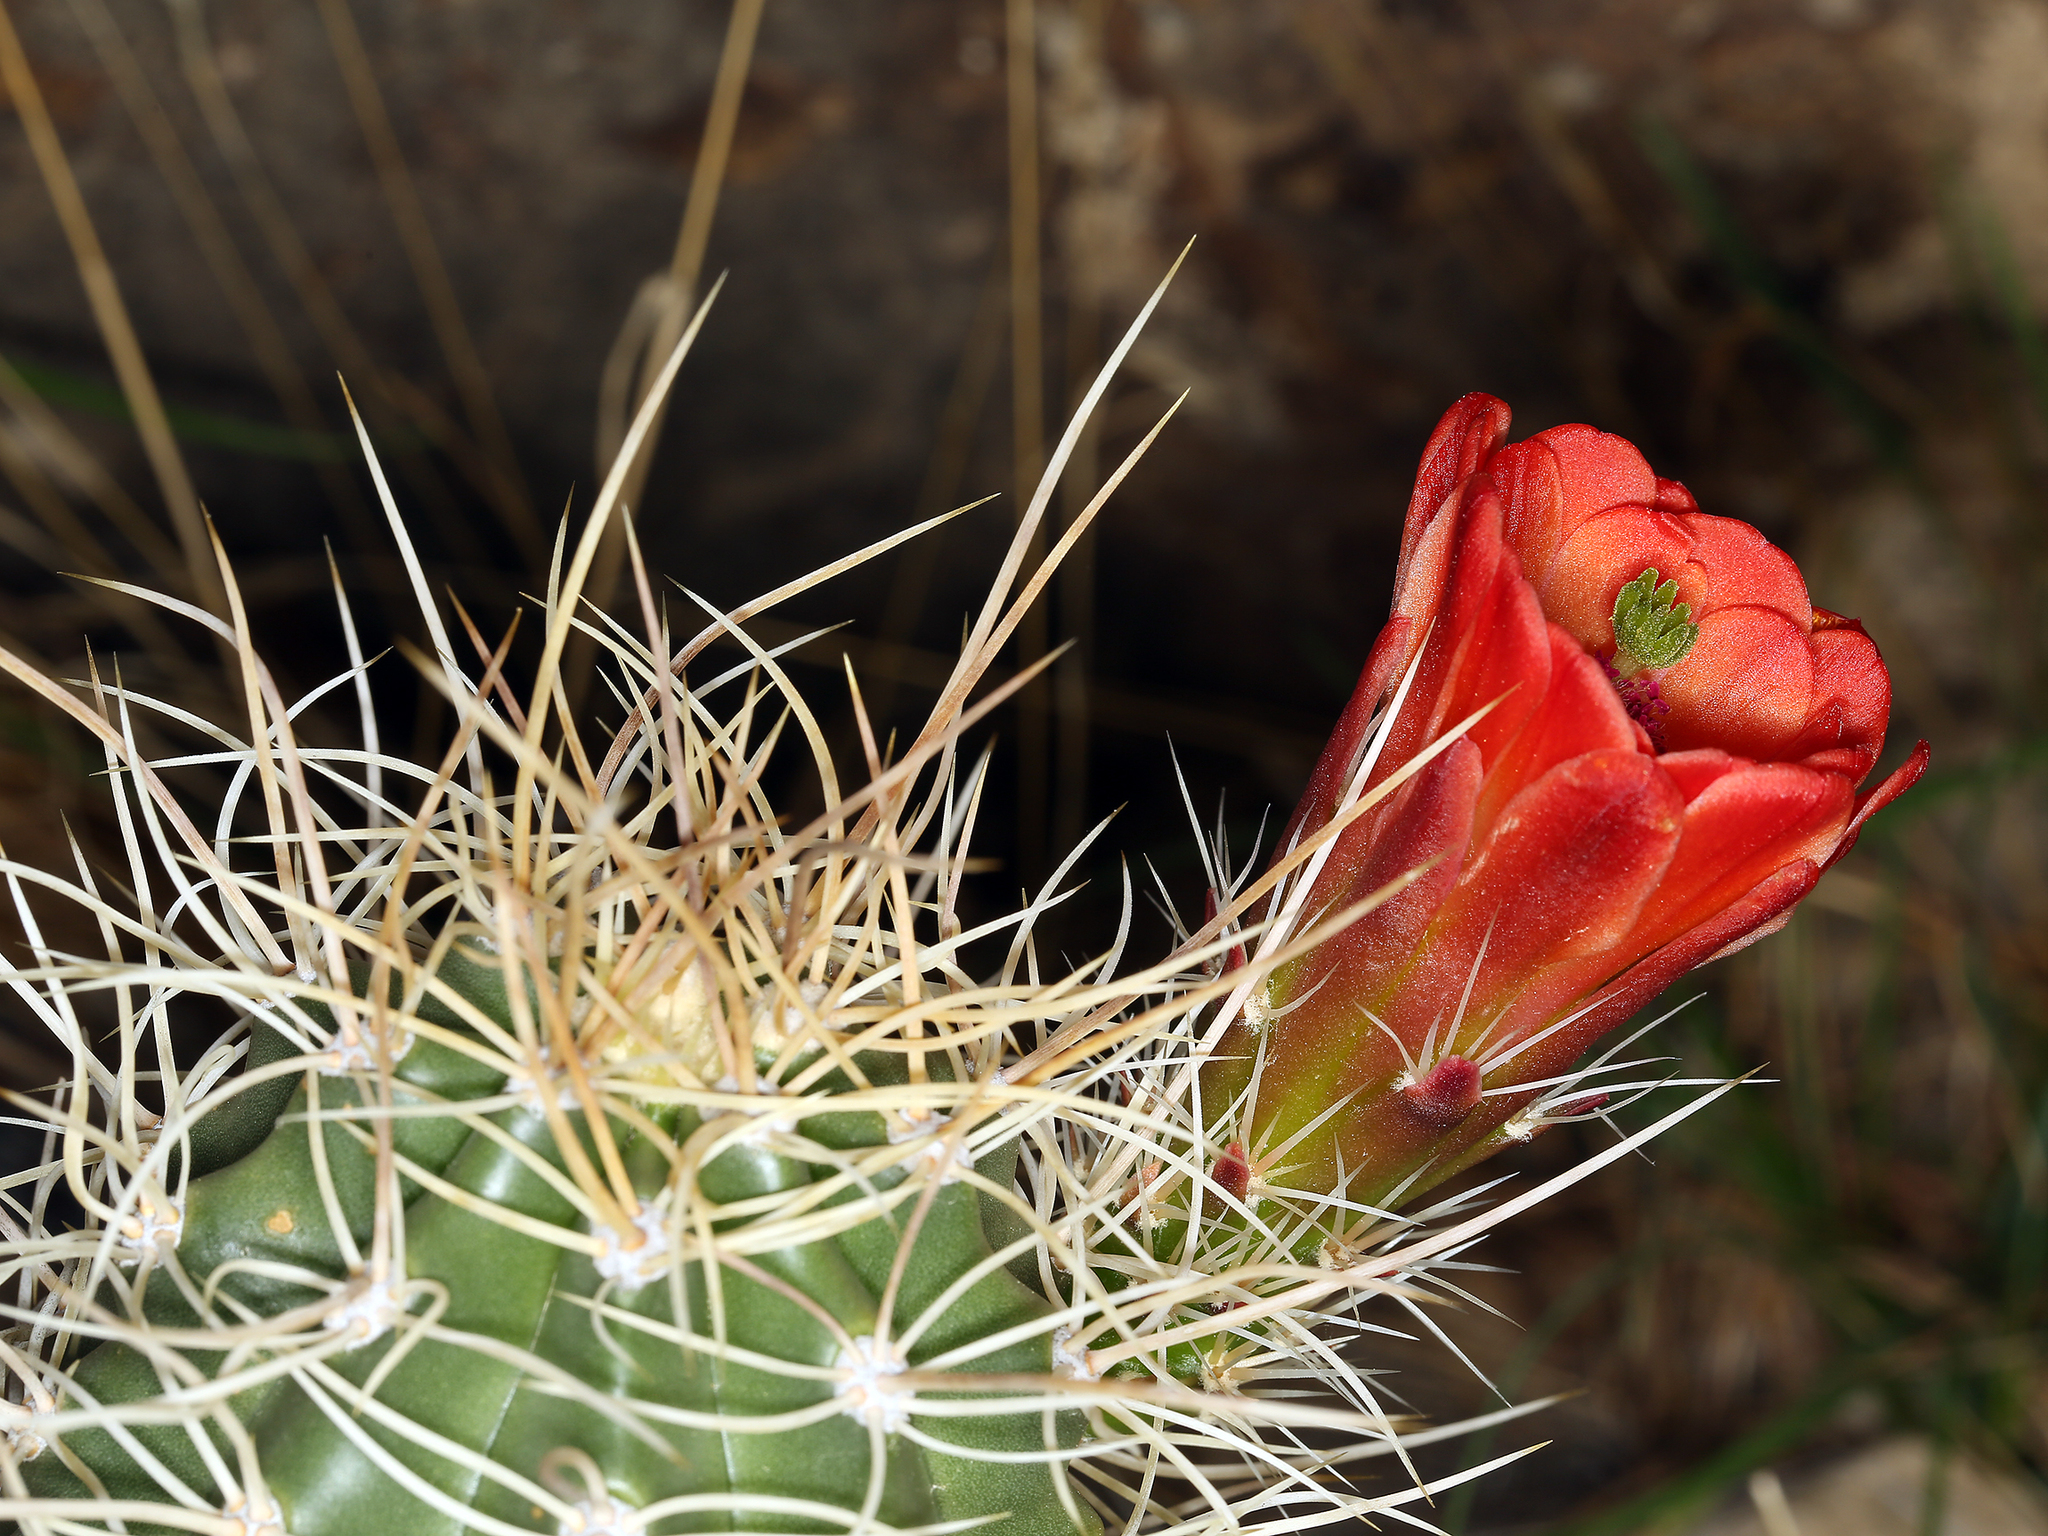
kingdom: Plantae
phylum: Tracheophyta
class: Magnoliopsida
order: Caryophyllales
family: Cactaceae
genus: Echinocereus
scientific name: Echinocereus triglochidiatus
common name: Claretcup hedgehog
